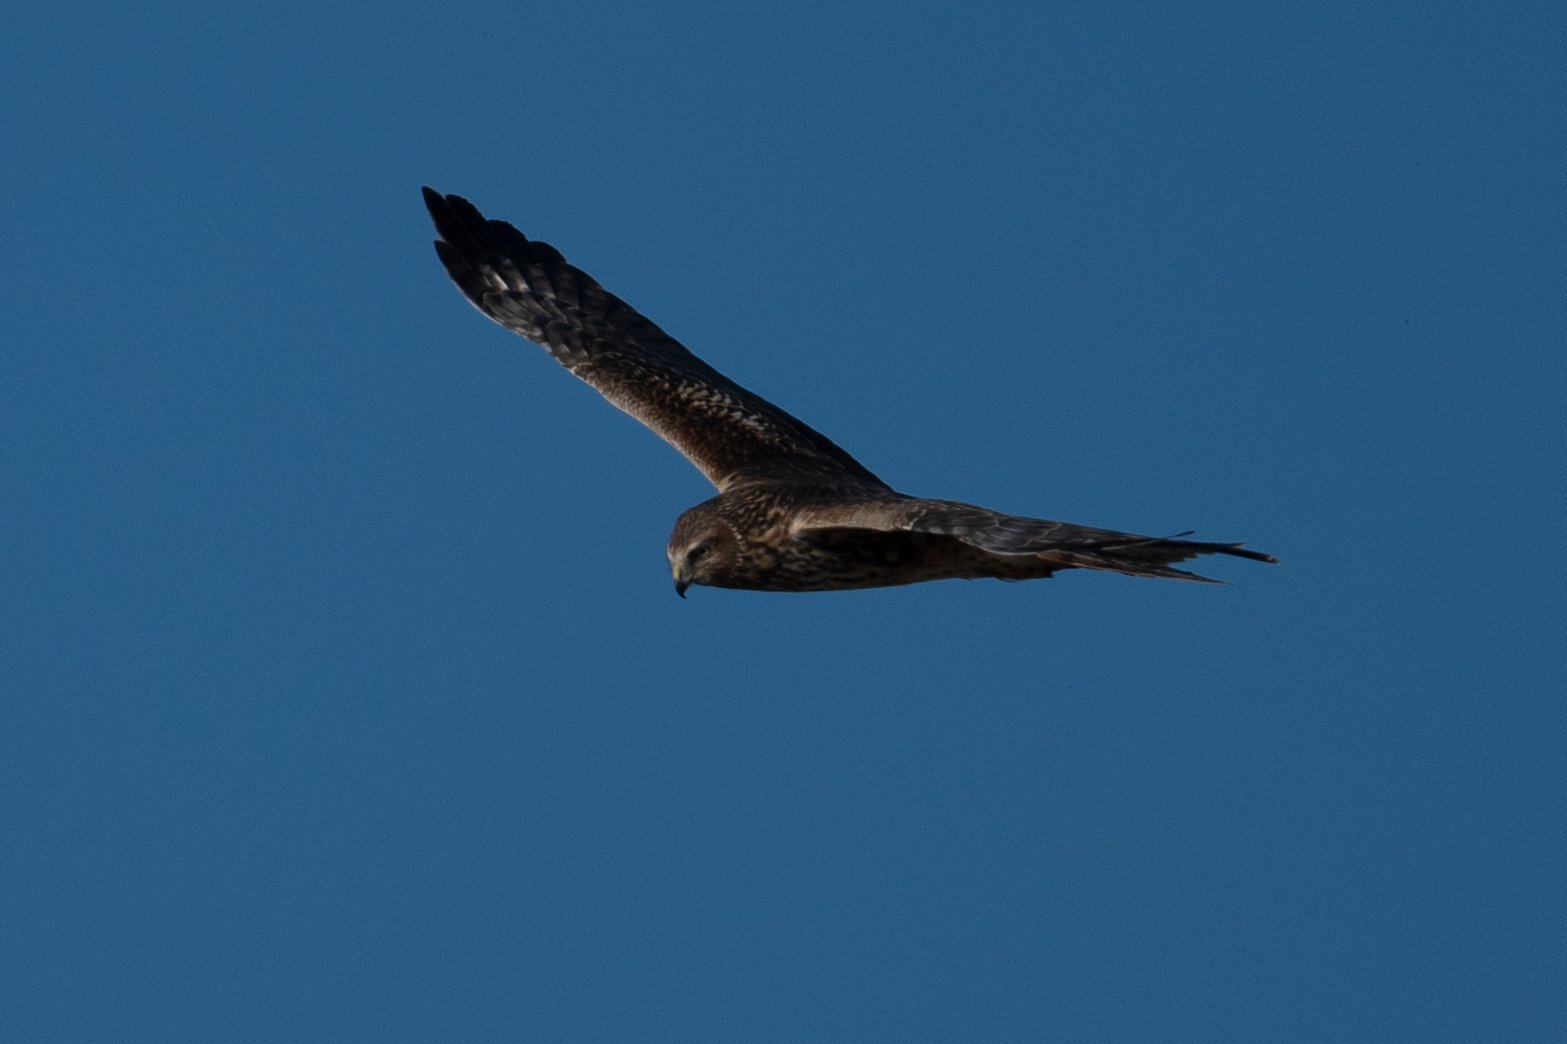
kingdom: Animalia
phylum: Chordata
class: Aves
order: Accipitriformes
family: Accipitridae
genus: Circus
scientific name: Circus cyaneus
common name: Hen harrier
